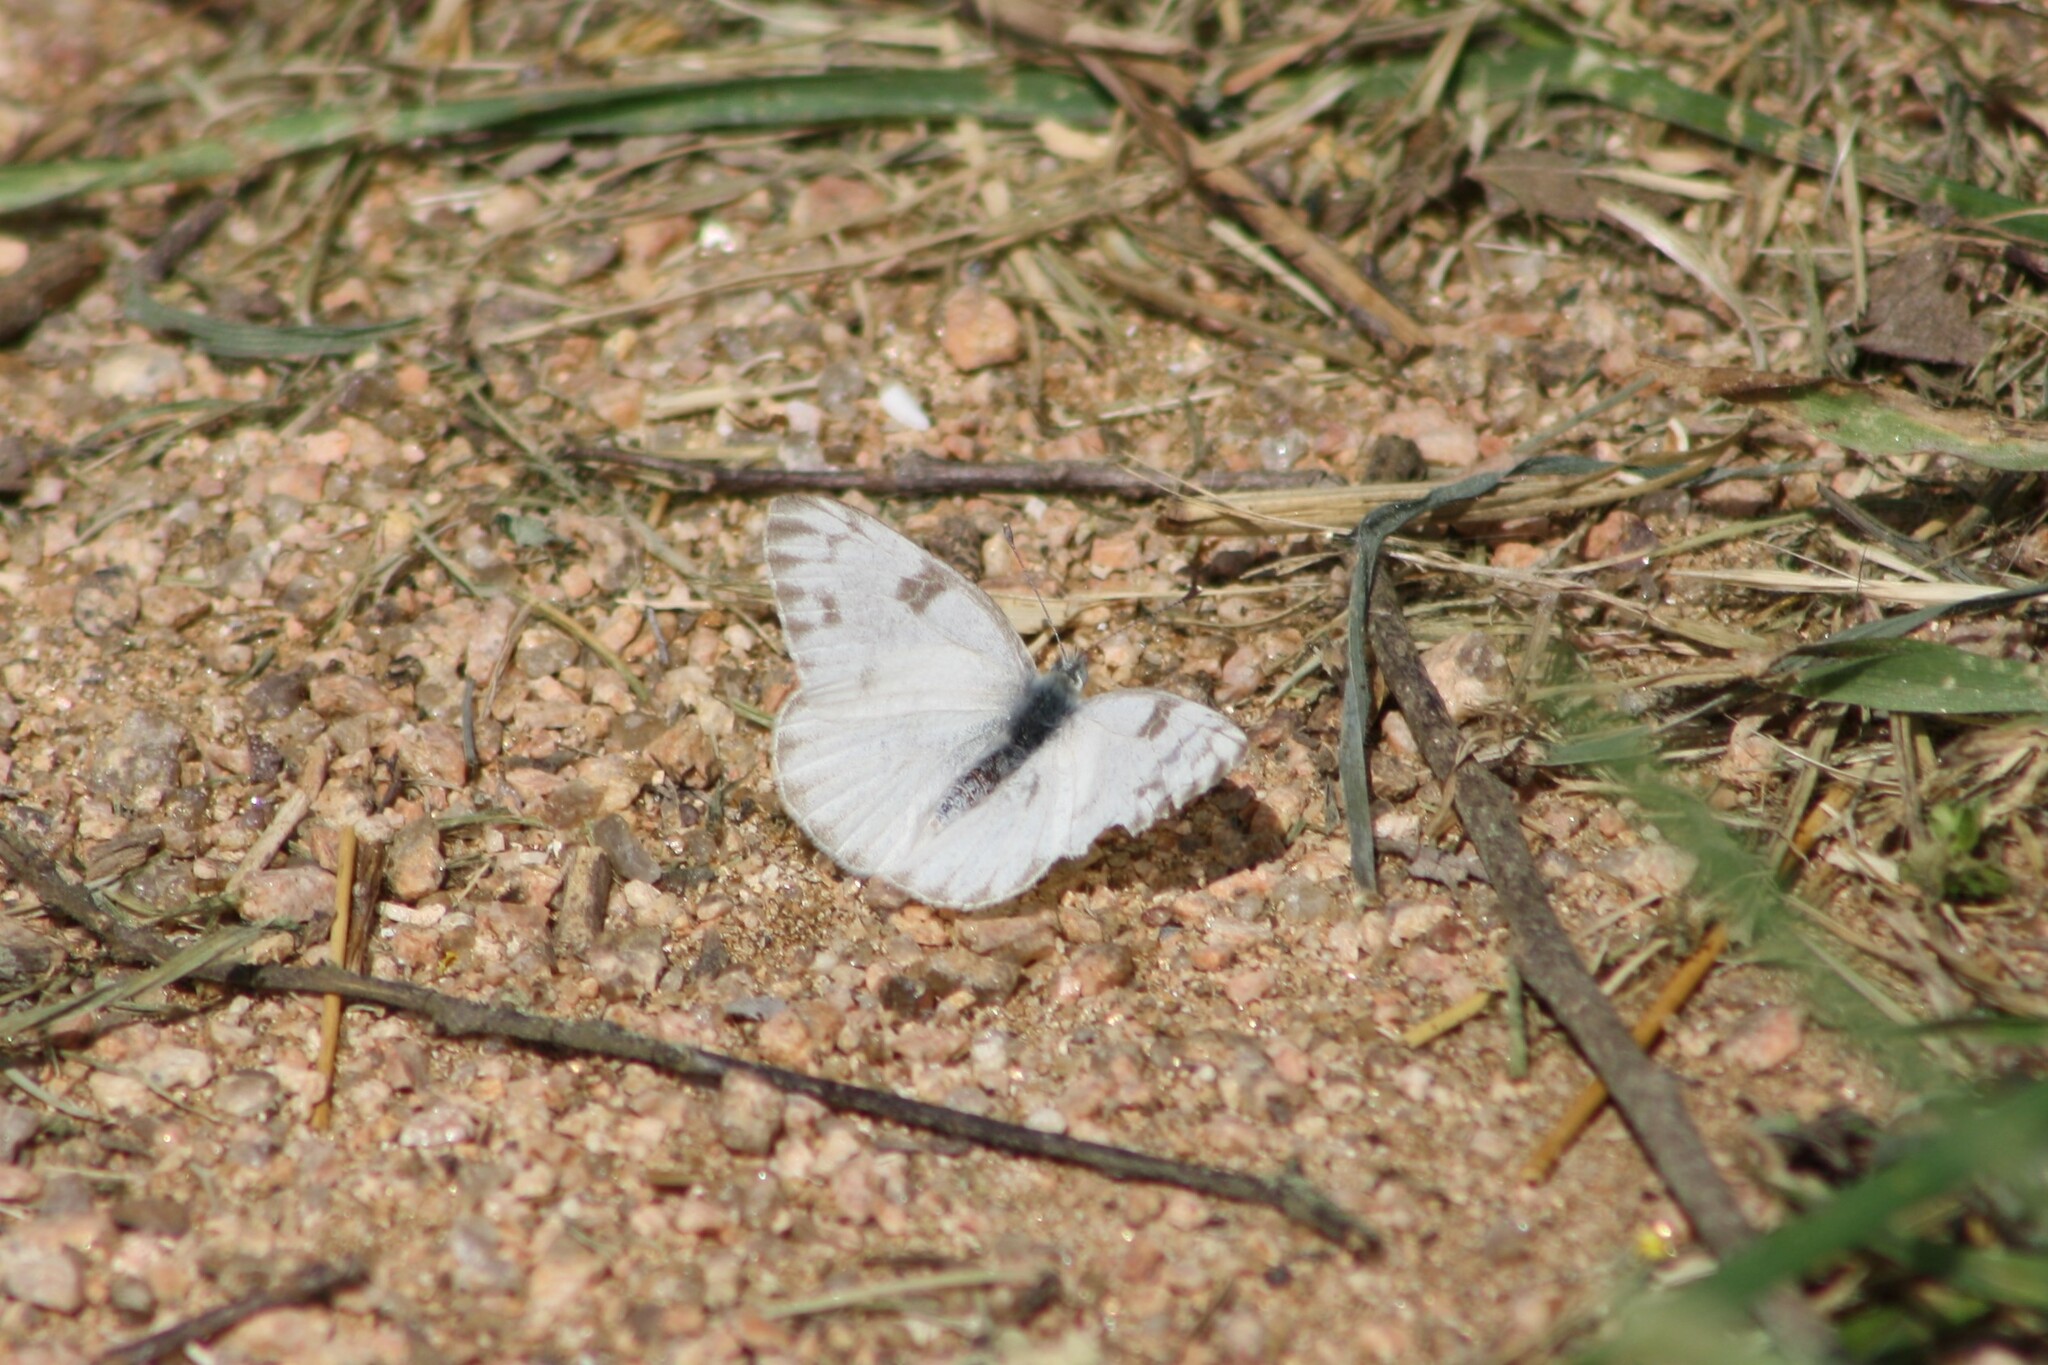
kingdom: Animalia
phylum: Arthropoda
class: Insecta
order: Lepidoptera
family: Pieridae
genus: Pontia
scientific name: Pontia protodice
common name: Checkered white
